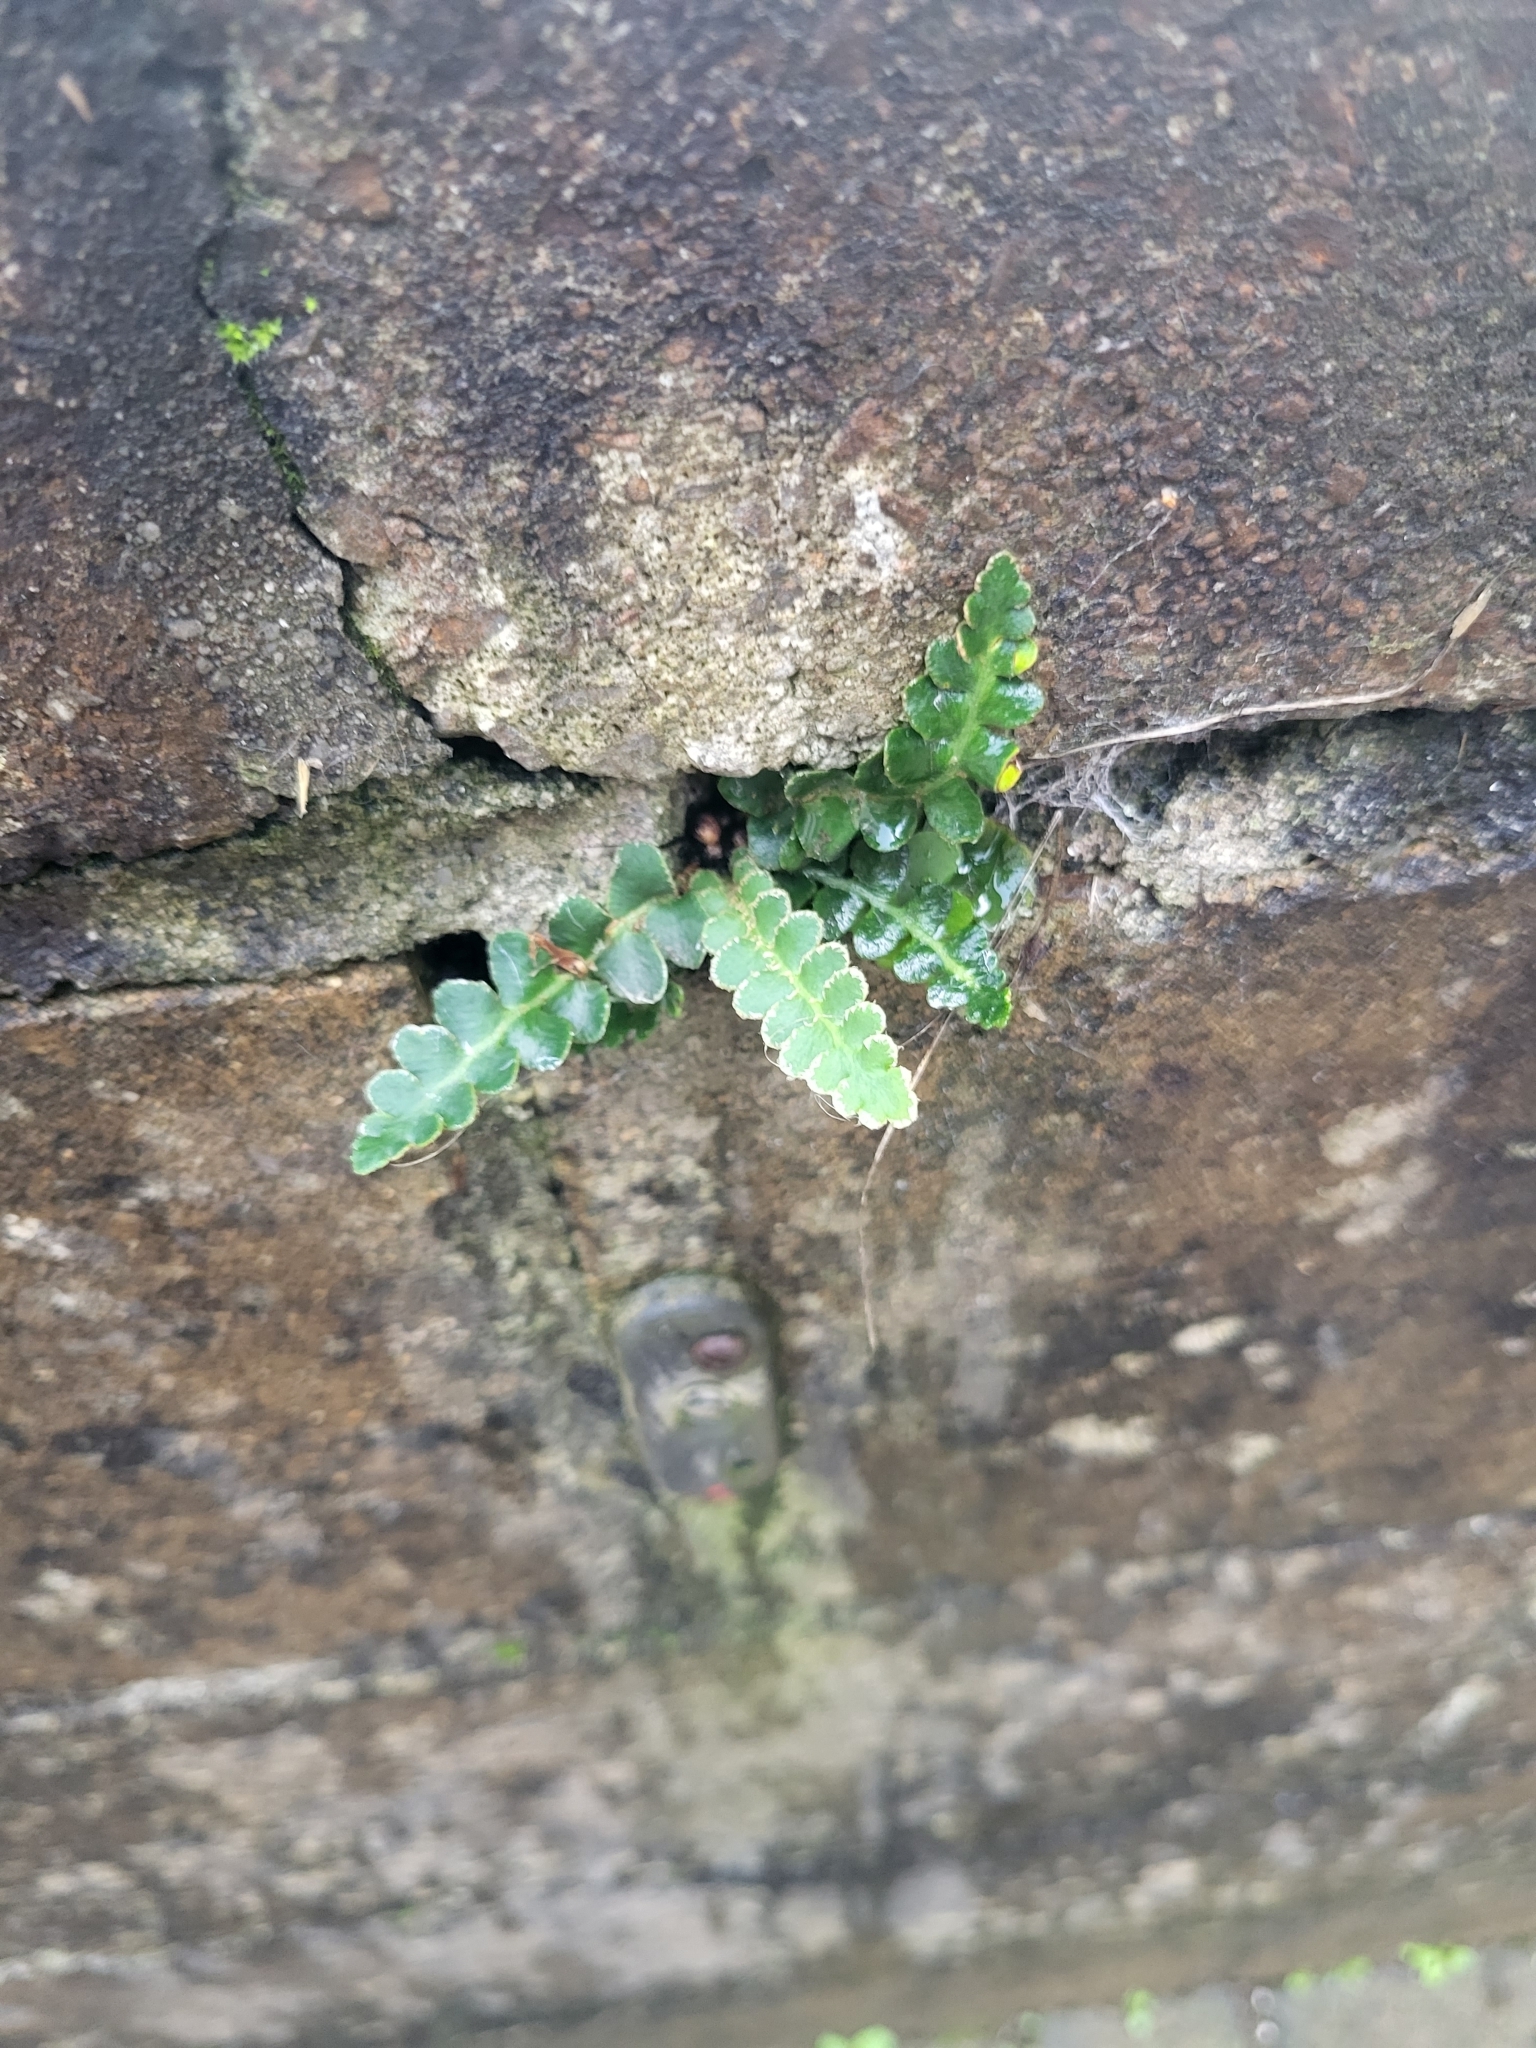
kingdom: Plantae
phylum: Tracheophyta
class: Polypodiopsida
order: Polypodiales
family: Aspleniaceae
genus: Asplenium
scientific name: Asplenium ceterach
